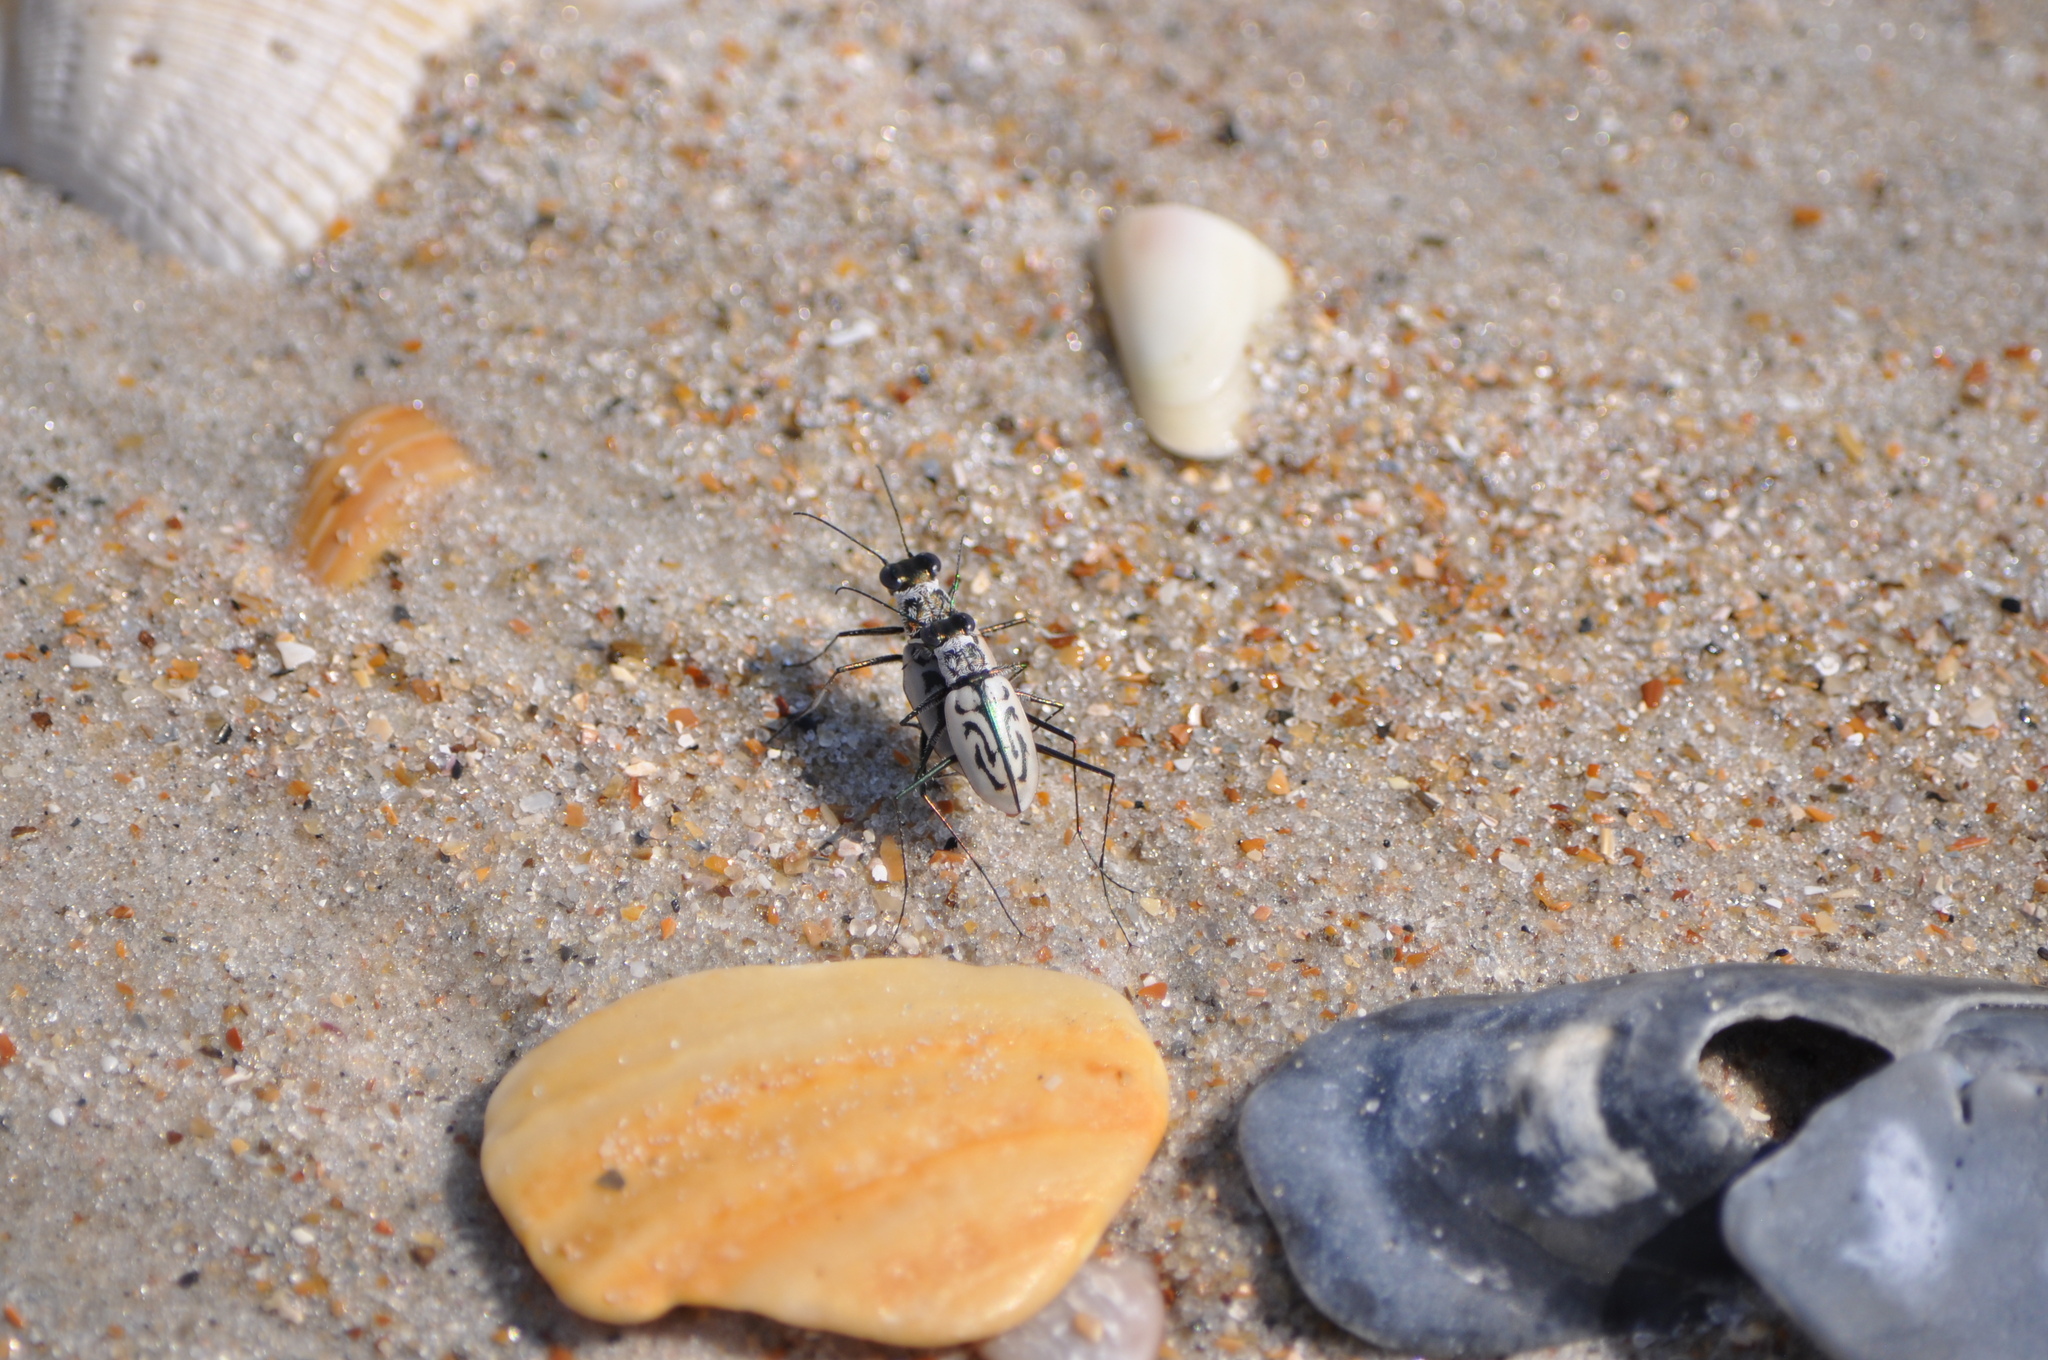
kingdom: Animalia
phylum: Arthropoda
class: Insecta
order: Coleoptera
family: Carabidae
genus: Habroscelimorpha
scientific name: Habroscelimorpha dorsalis
